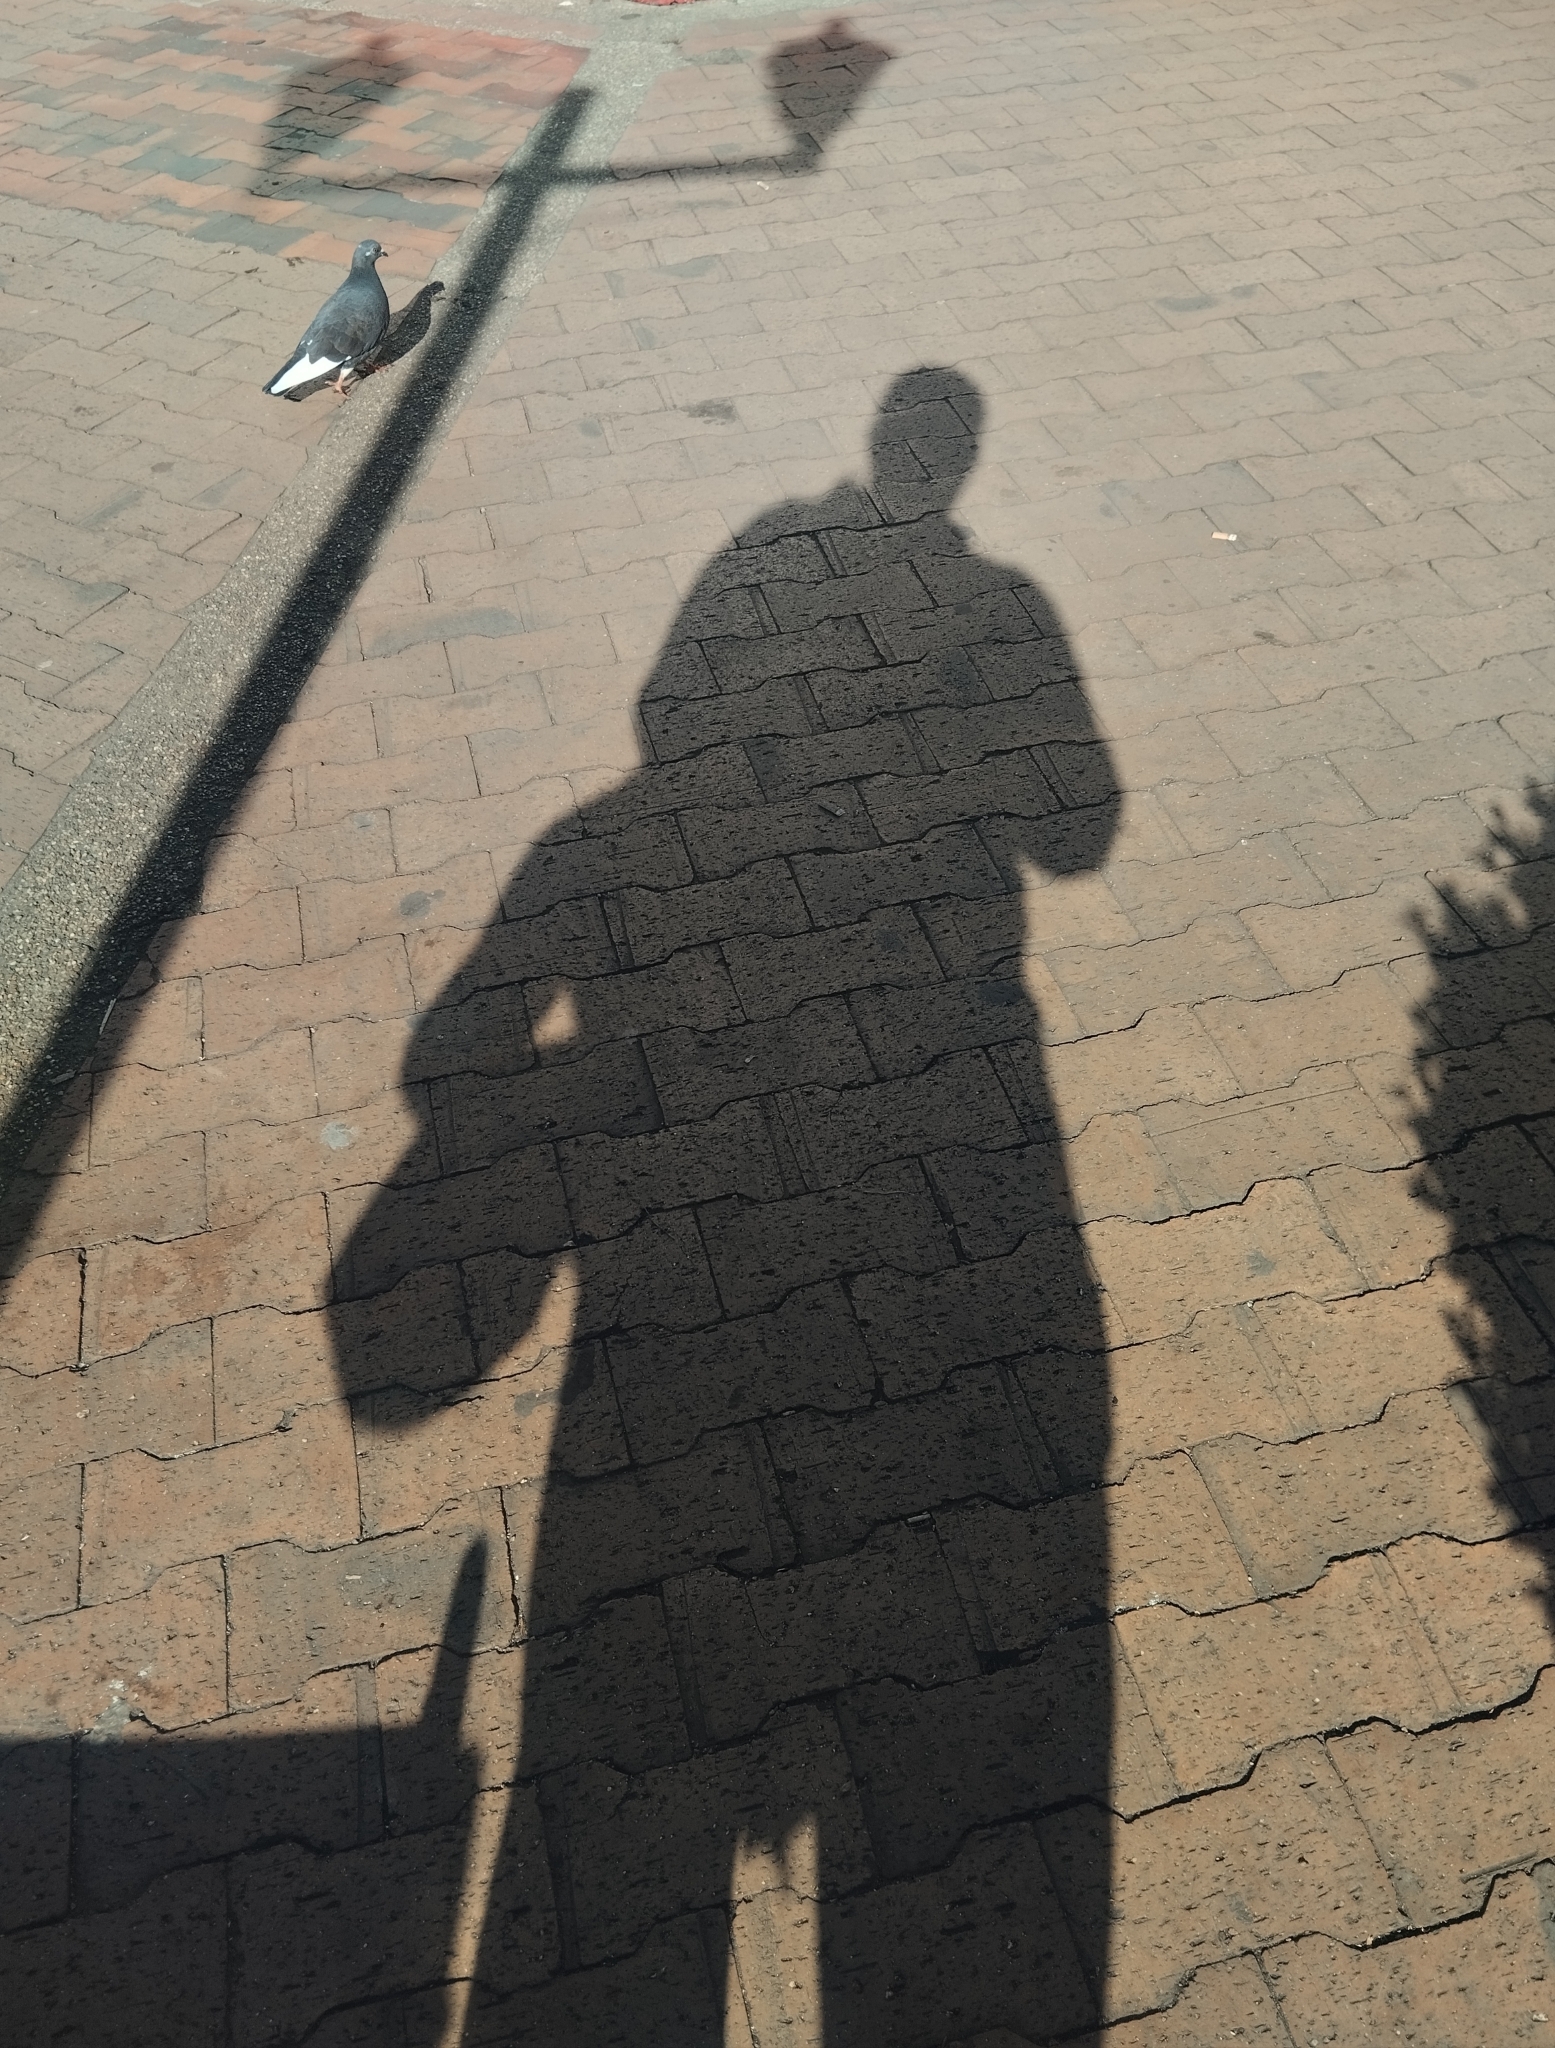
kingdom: Animalia
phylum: Chordata
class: Aves
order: Columbiformes
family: Columbidae
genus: Columba
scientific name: Columba livia
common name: Rock pigeon
